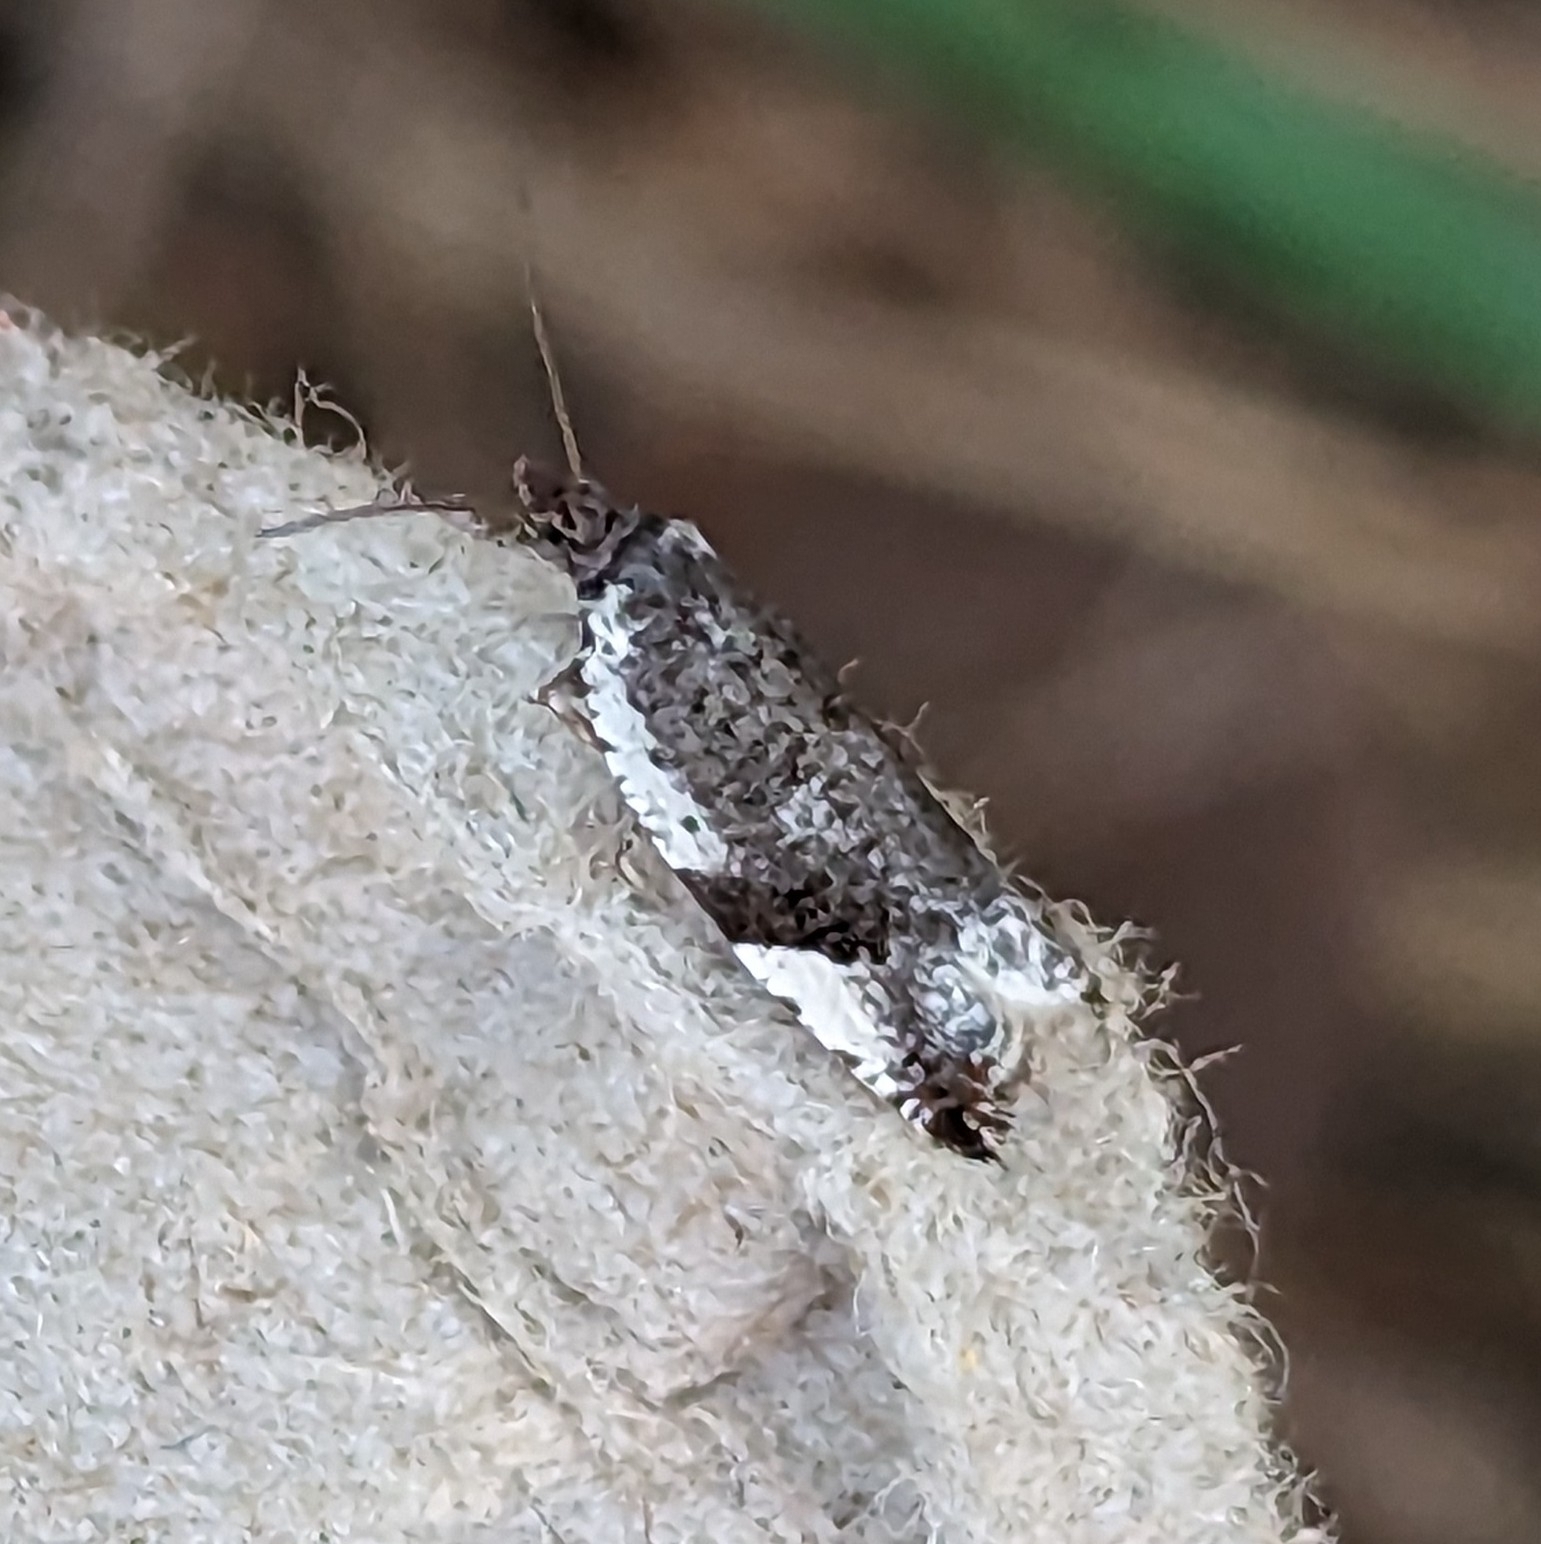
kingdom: Animalia
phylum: Arthropoda
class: Insecta
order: Lepidoptera
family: Tortricidae
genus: Ancylis
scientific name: Ancylis mediofasciana
